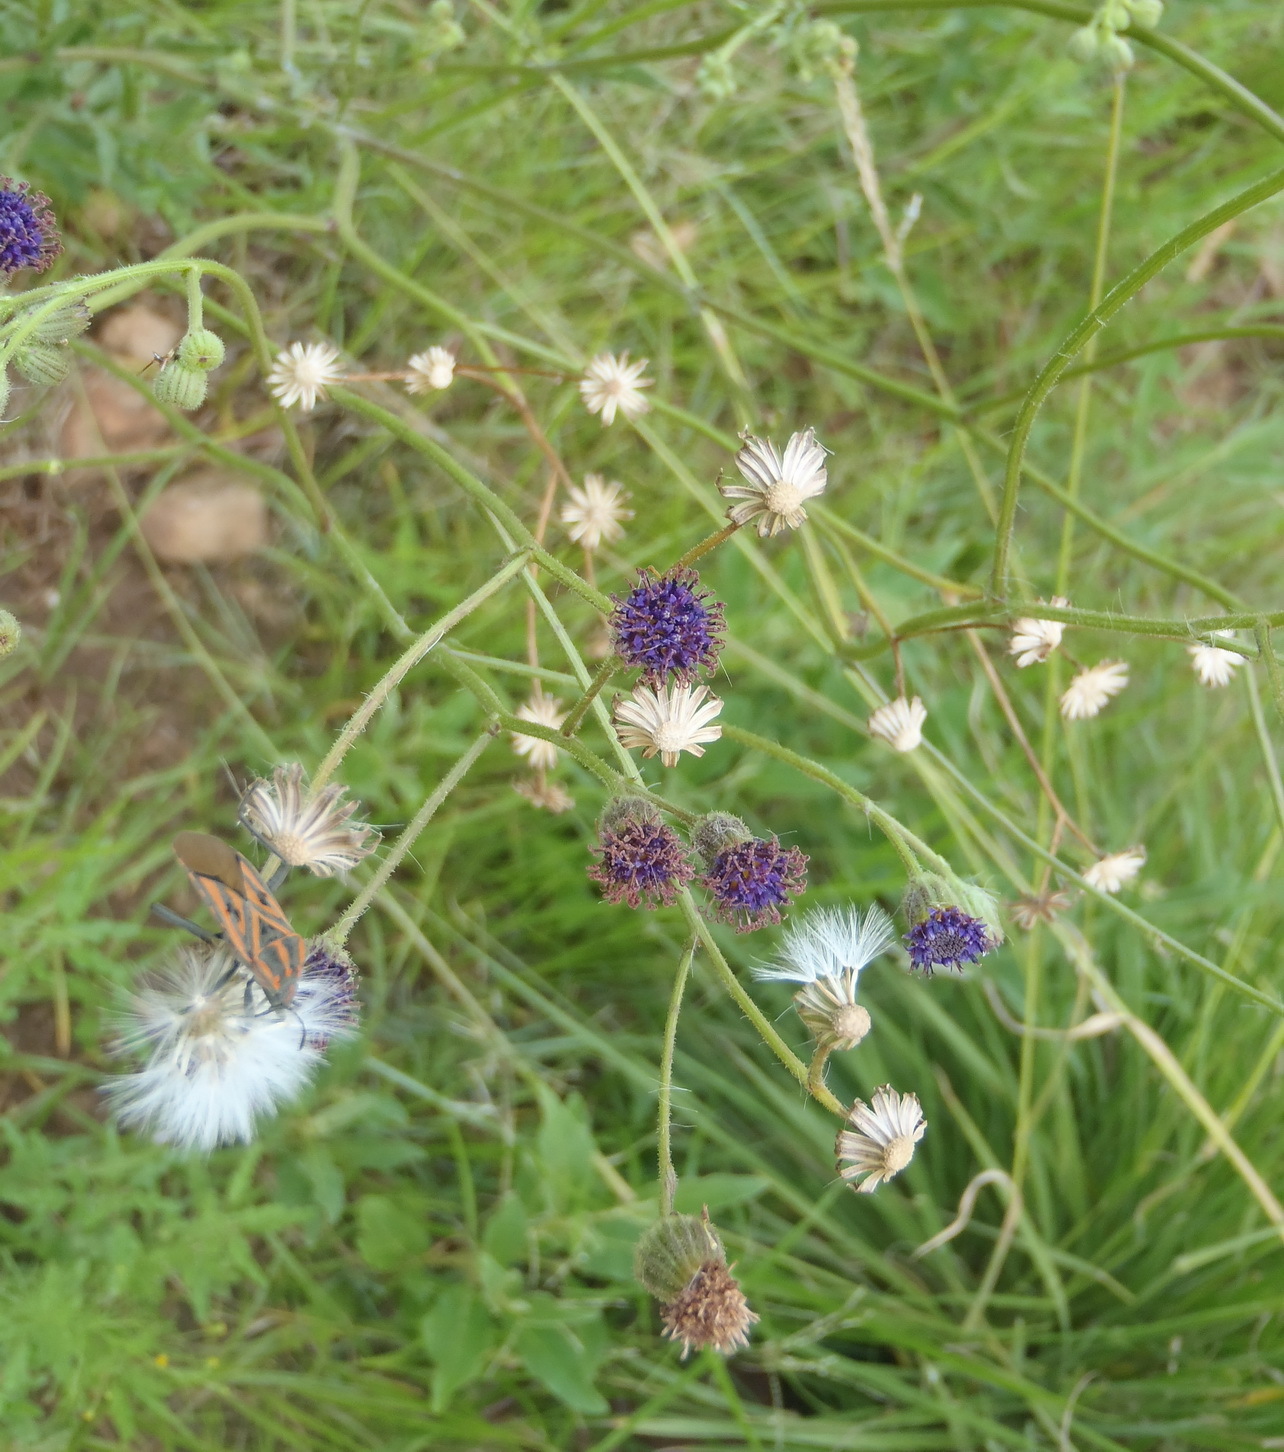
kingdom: Plantae
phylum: Tracheophyta
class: Magnoliopsida
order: Asterales
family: Asteraceae
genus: Senecio
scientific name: Senecio erubescens
